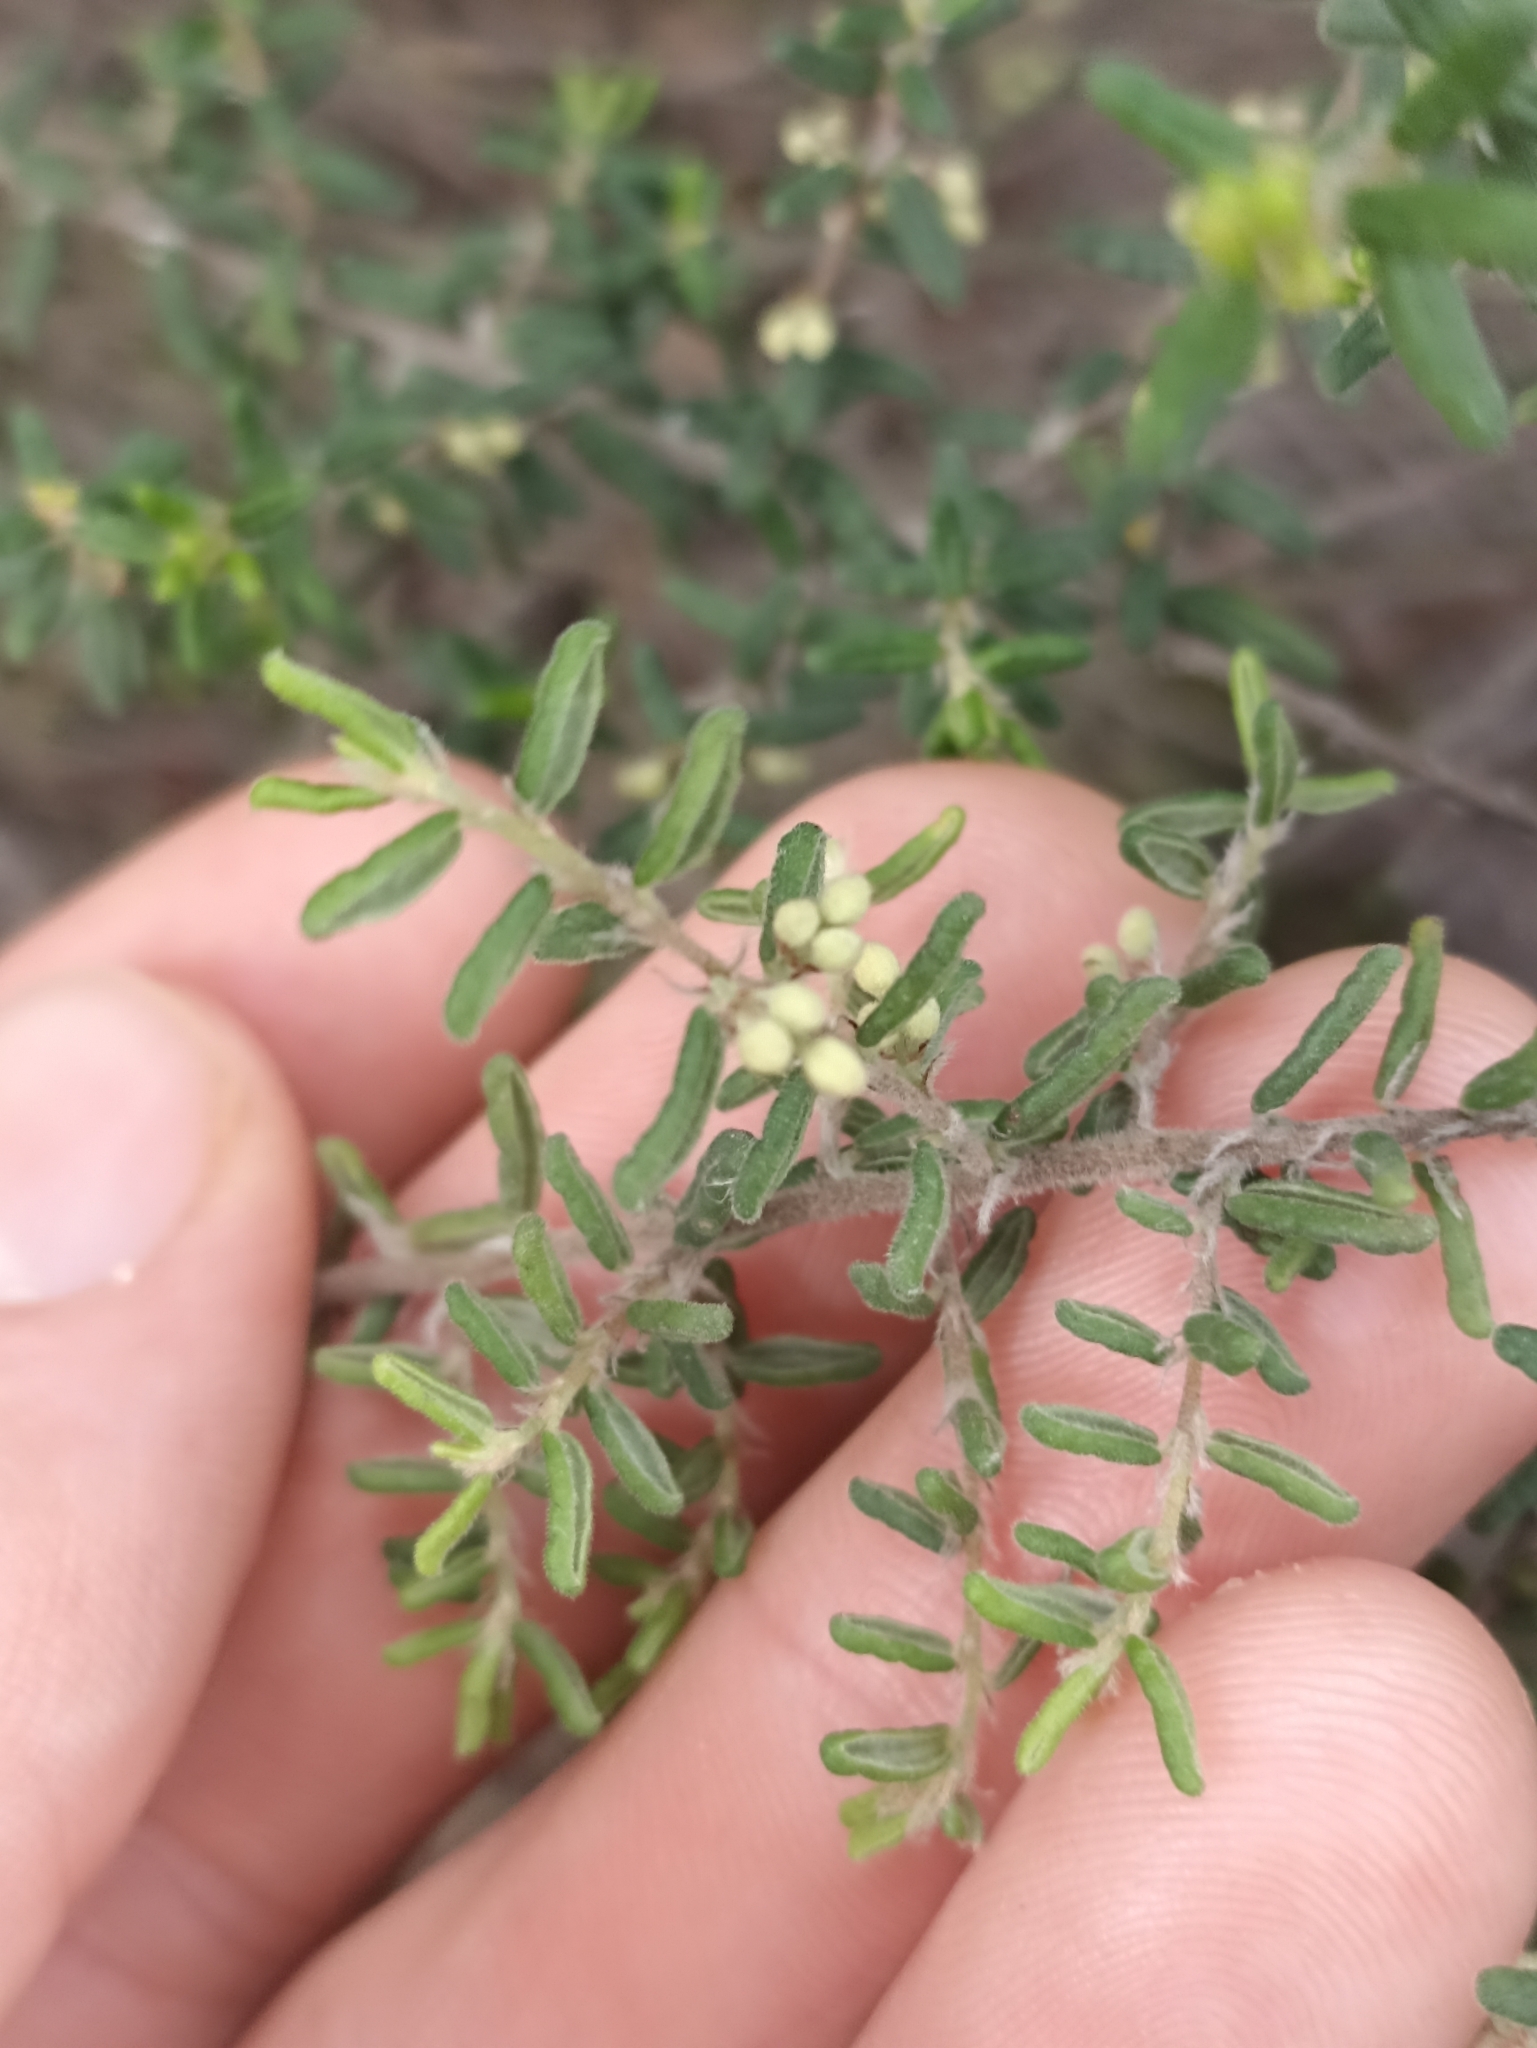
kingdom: Plantae
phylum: Tracheophyta
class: Magnoliopsida
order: Rosales
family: Rhamnaceae
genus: Pomaderris
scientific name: Pomaderris amoena
